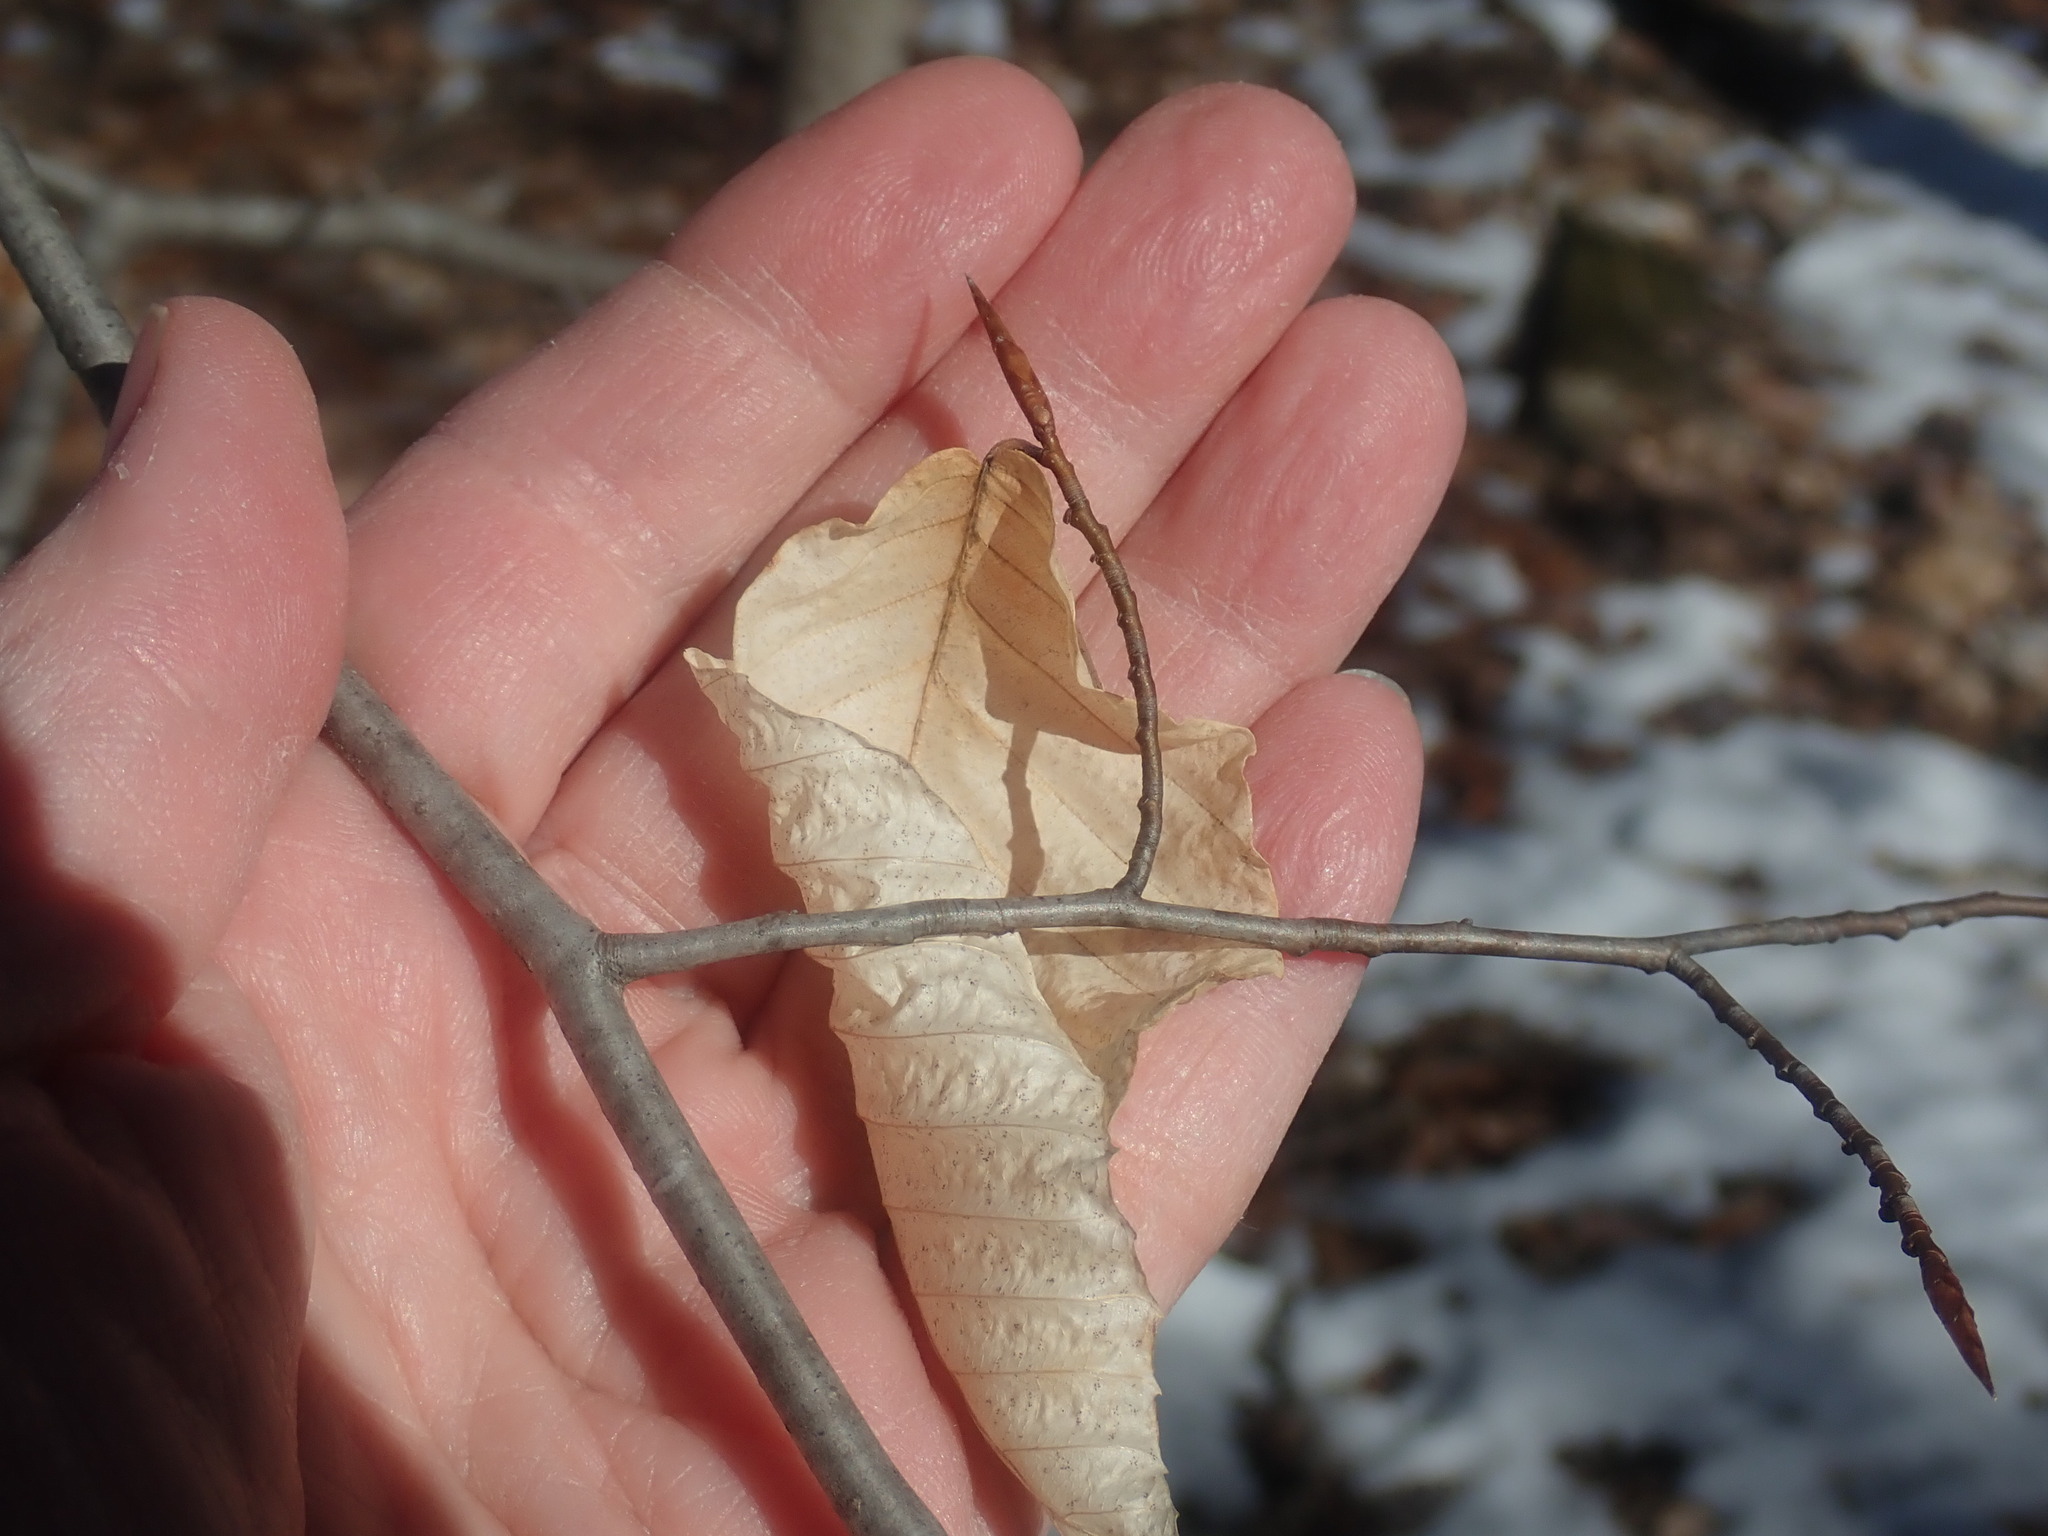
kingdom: Plantae
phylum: Tracheophyta
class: Magnoliopsida
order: Fagales
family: Fagaceae
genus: Fagus
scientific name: Fagus grandifolia
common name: American beech
